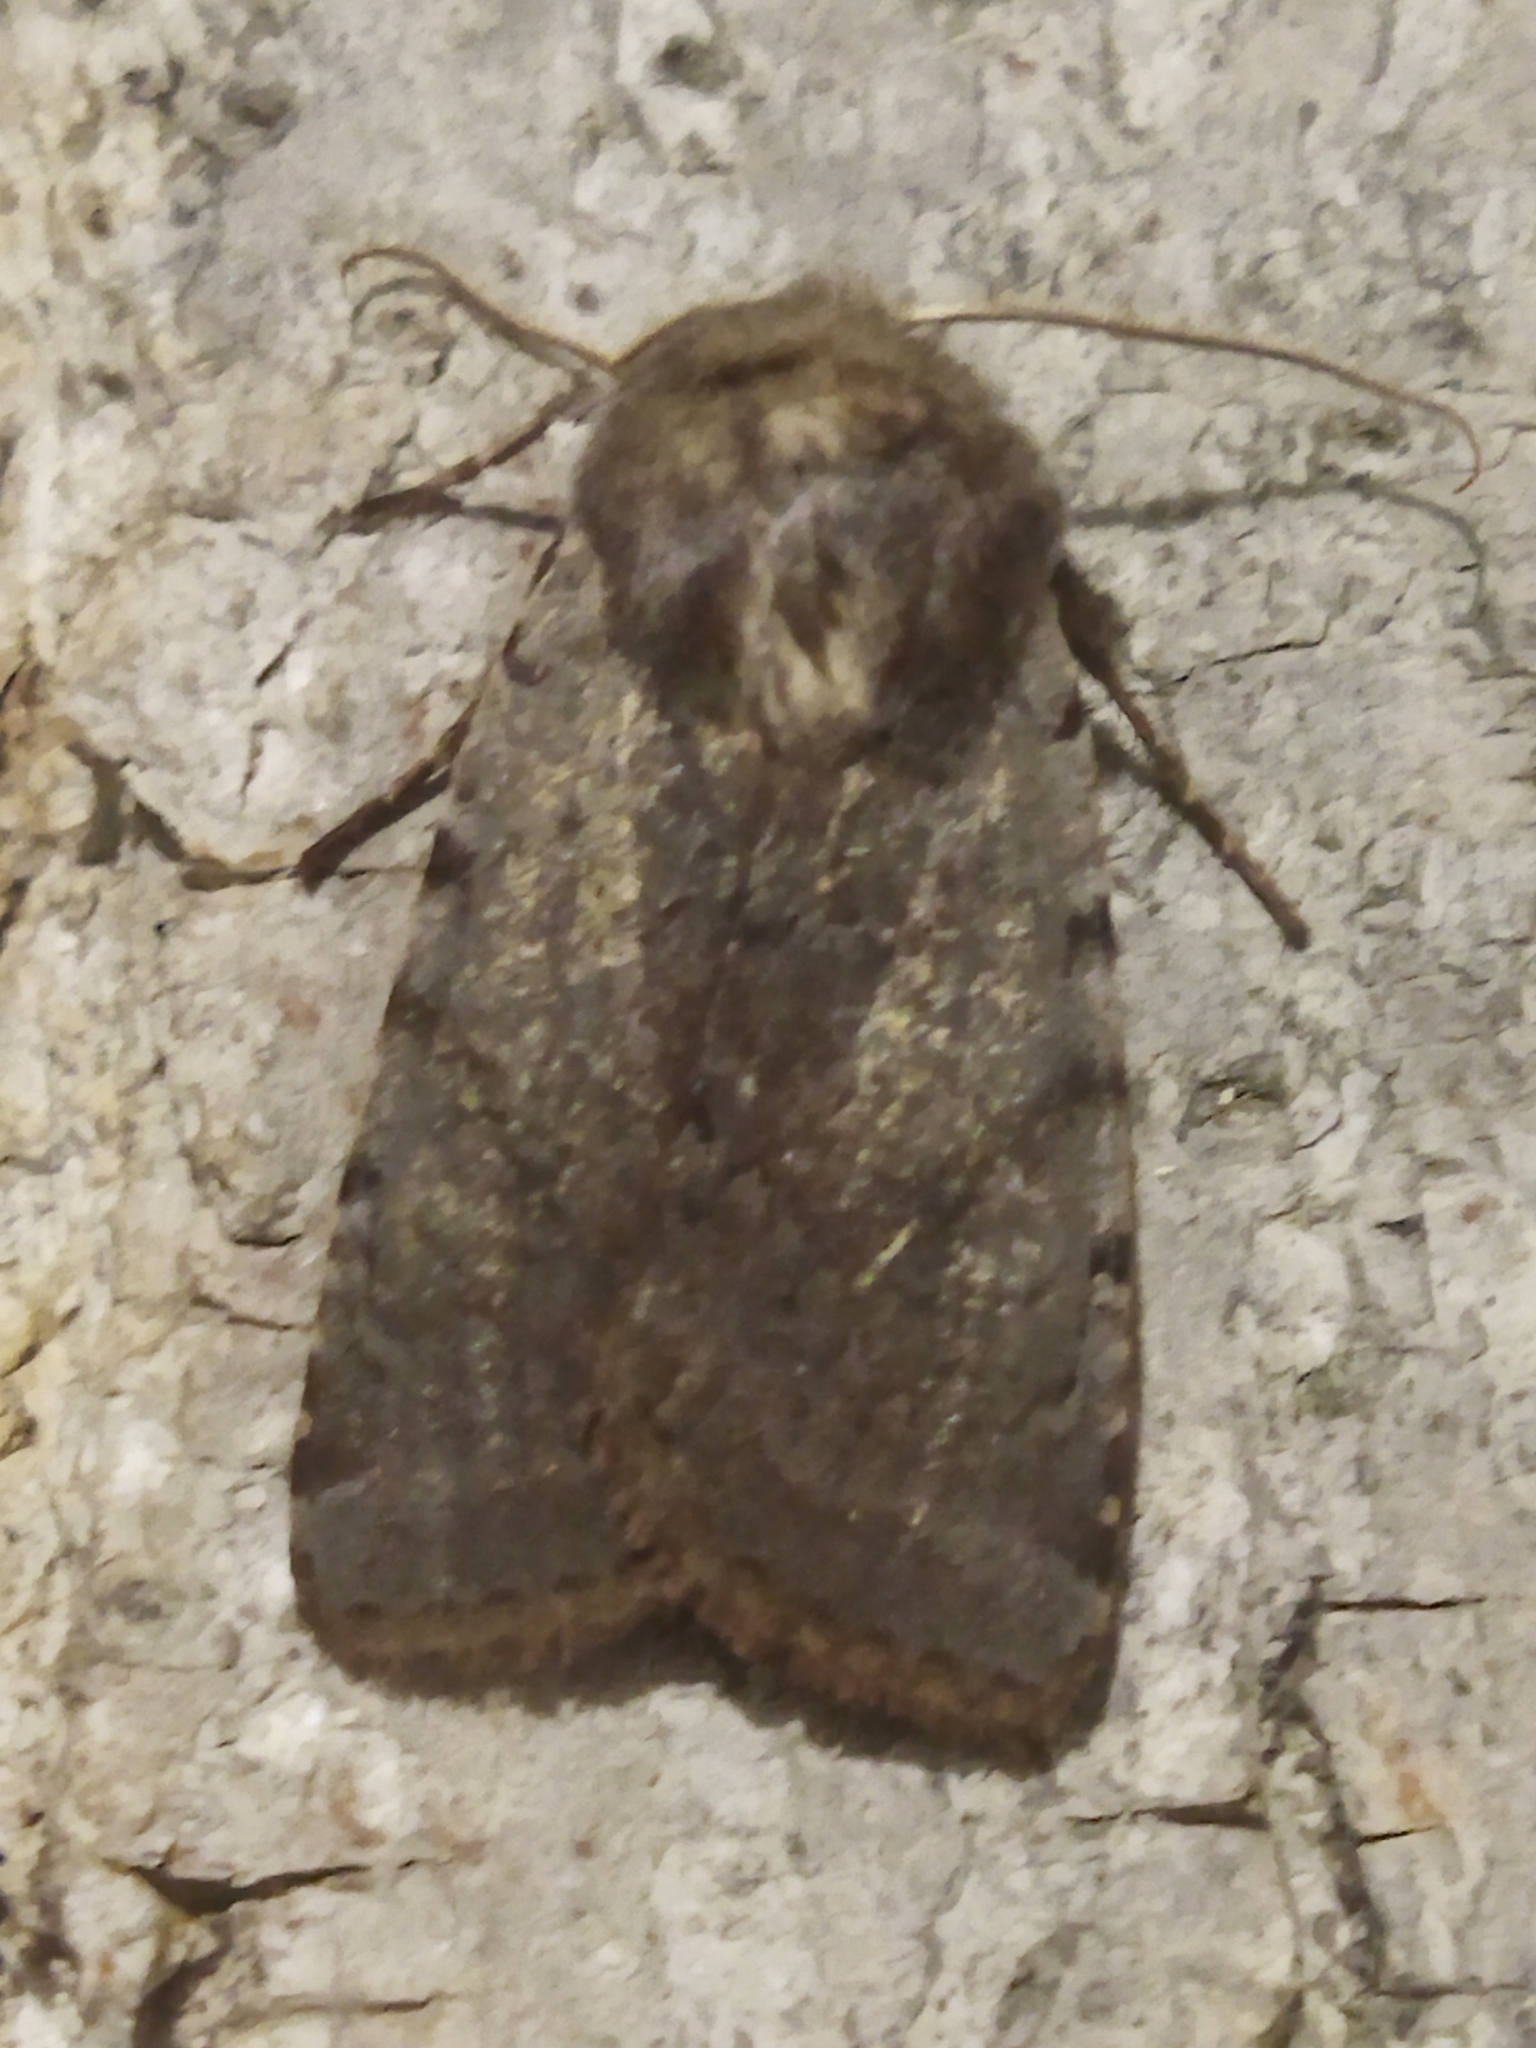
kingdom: Animalia
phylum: Arthropoda
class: Insecta
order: Lepidoptera
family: Noctuidae
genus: Cerastis
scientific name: Cerastis rubricosa
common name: Red chestnut
